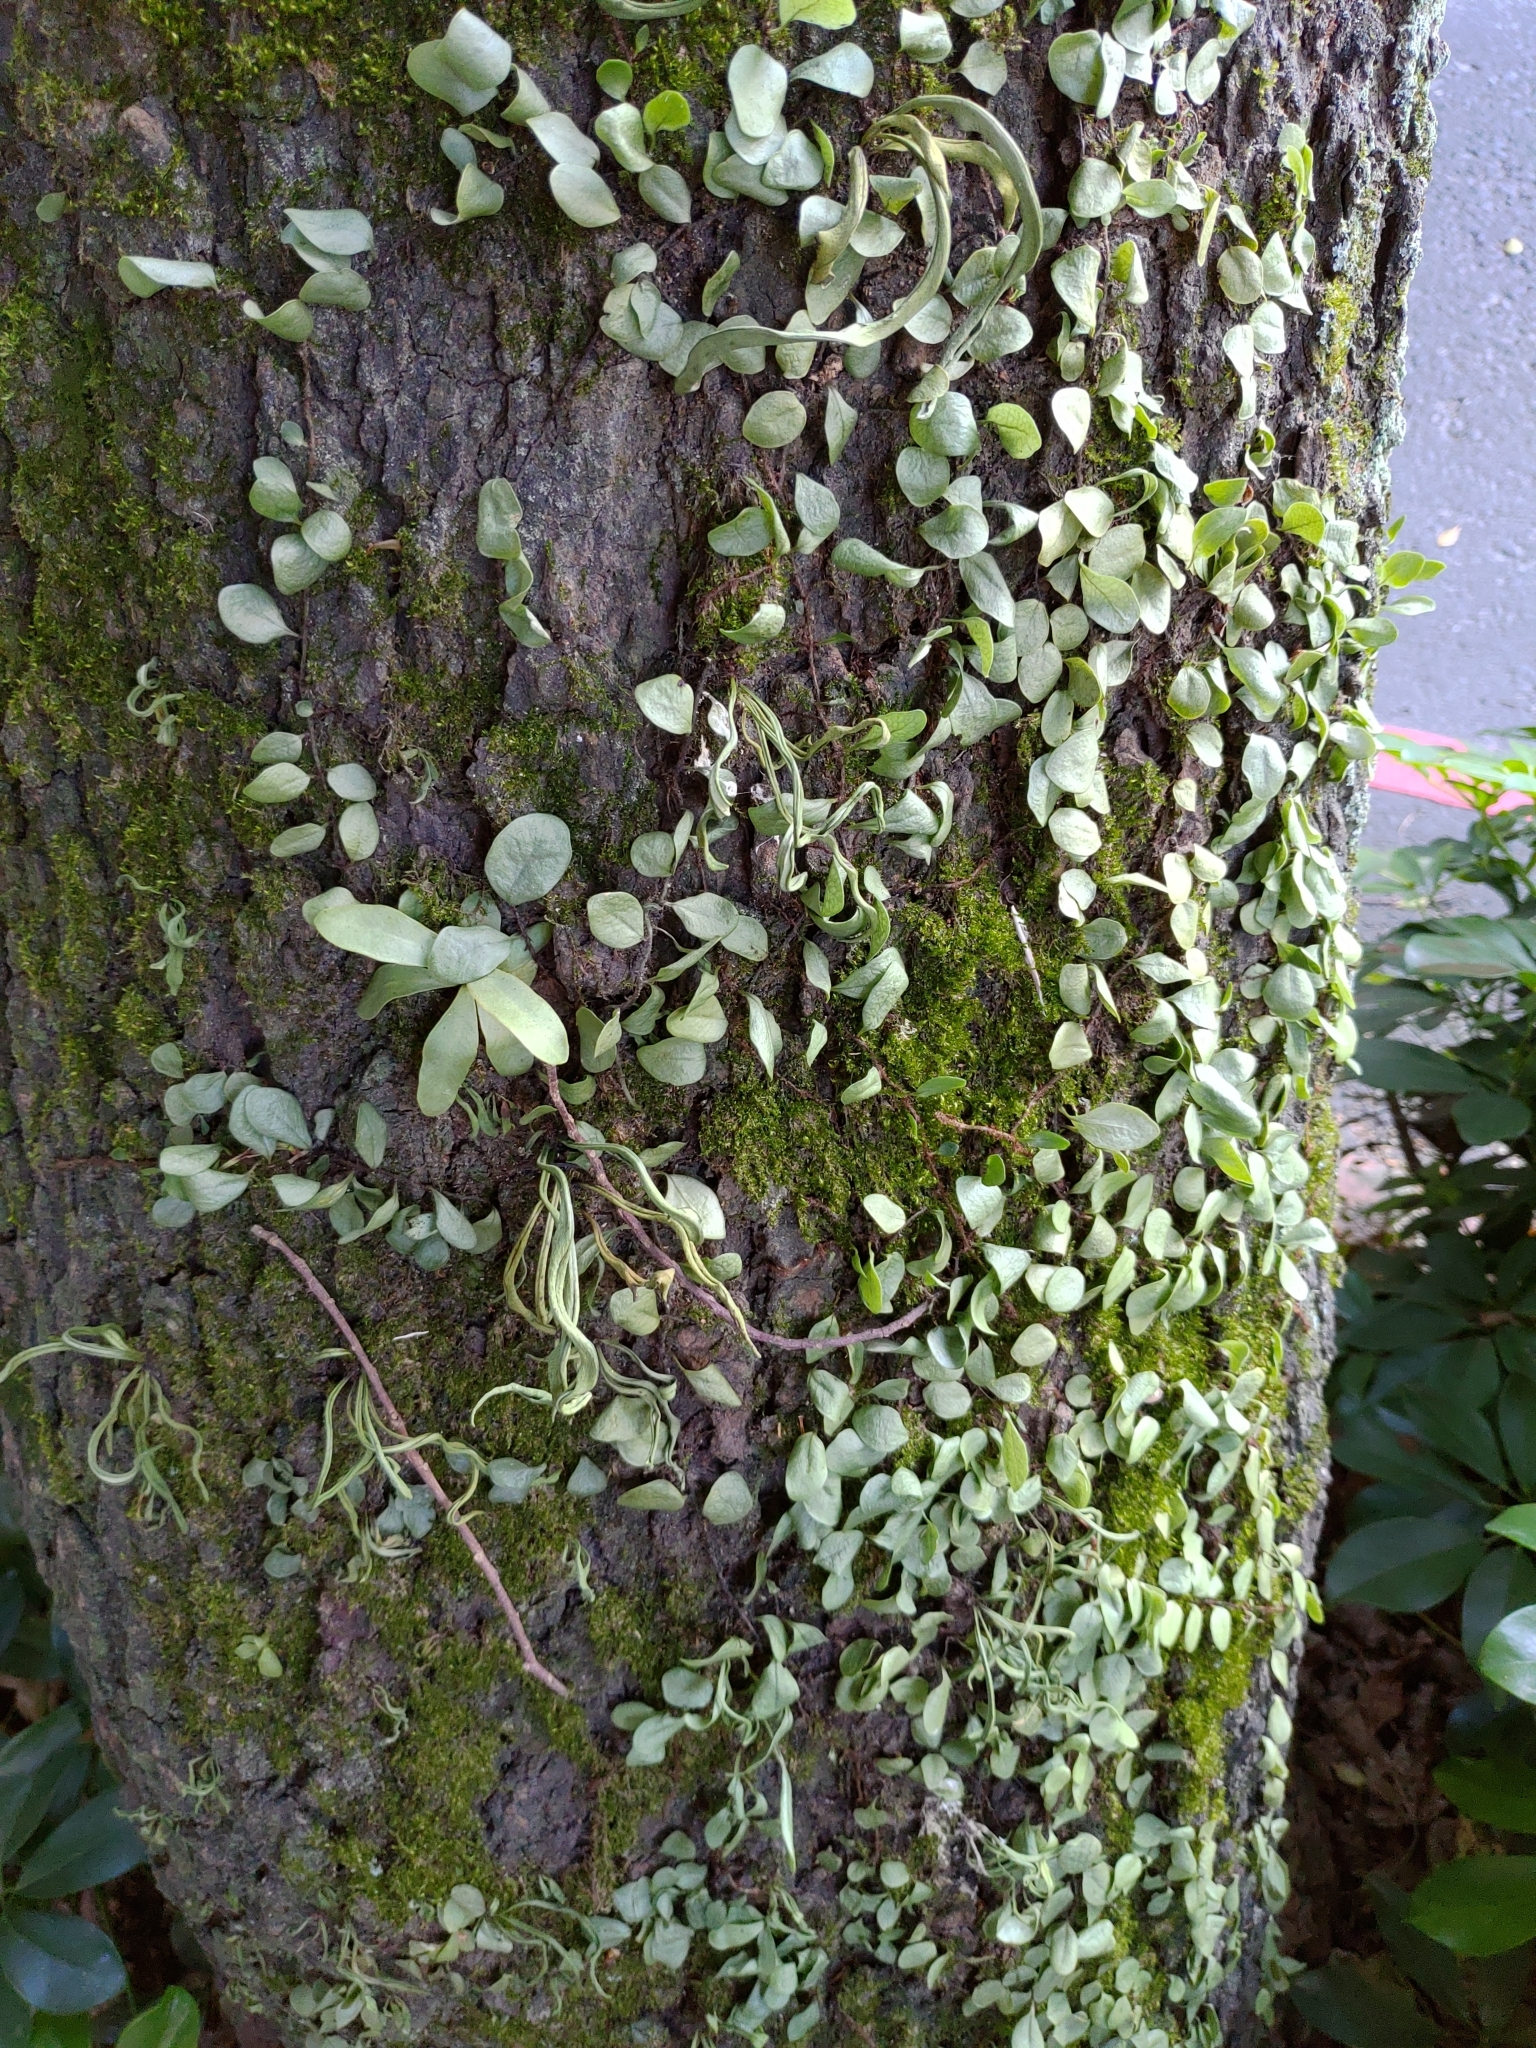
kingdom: Plantae
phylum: Tracheophyta
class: Polypodiopsida
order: Polypodiales
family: Polypodiaceae
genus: Lepisorus
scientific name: Lepisorus microphyllus
